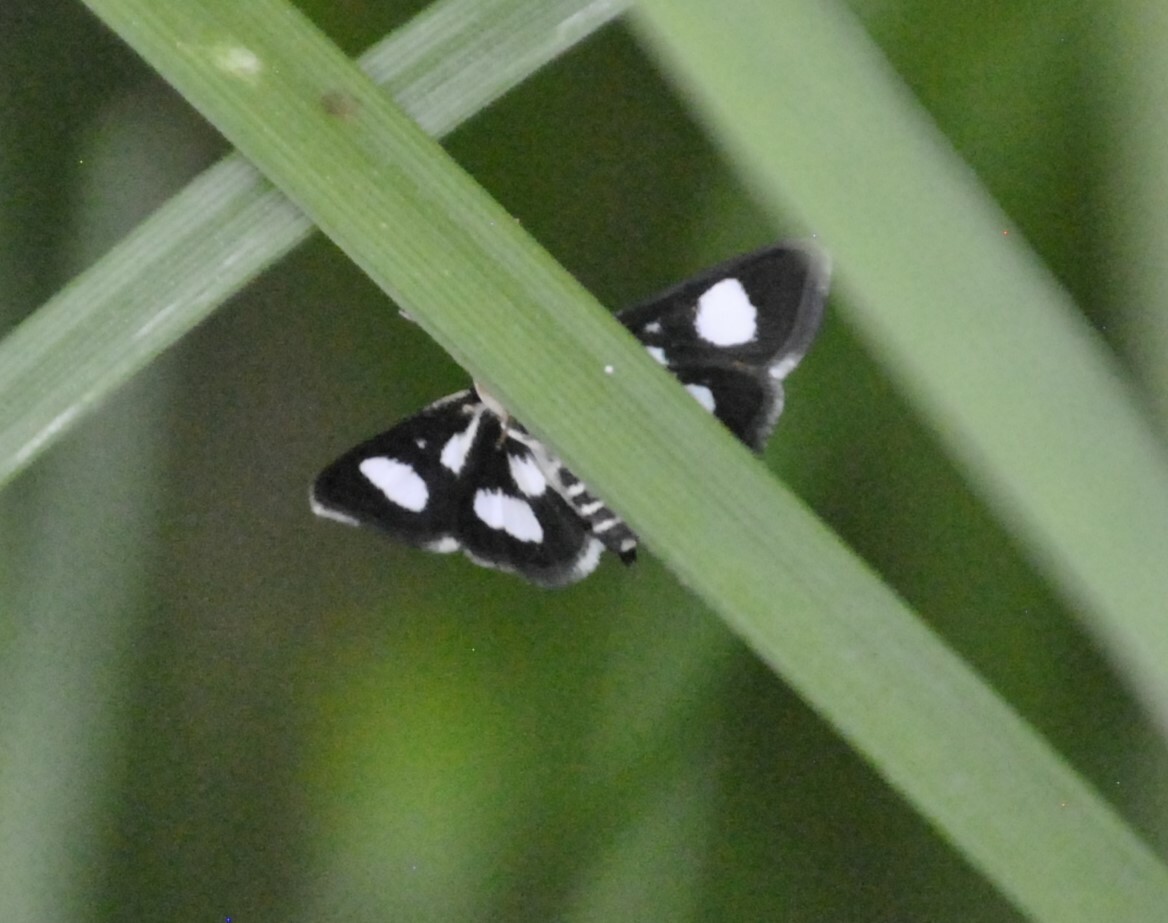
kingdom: Animalia
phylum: Arthropoda
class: Insecta
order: Lepidoptera
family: Crambidae
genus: Anania
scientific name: Anania funebris
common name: White-spotted sable moth
